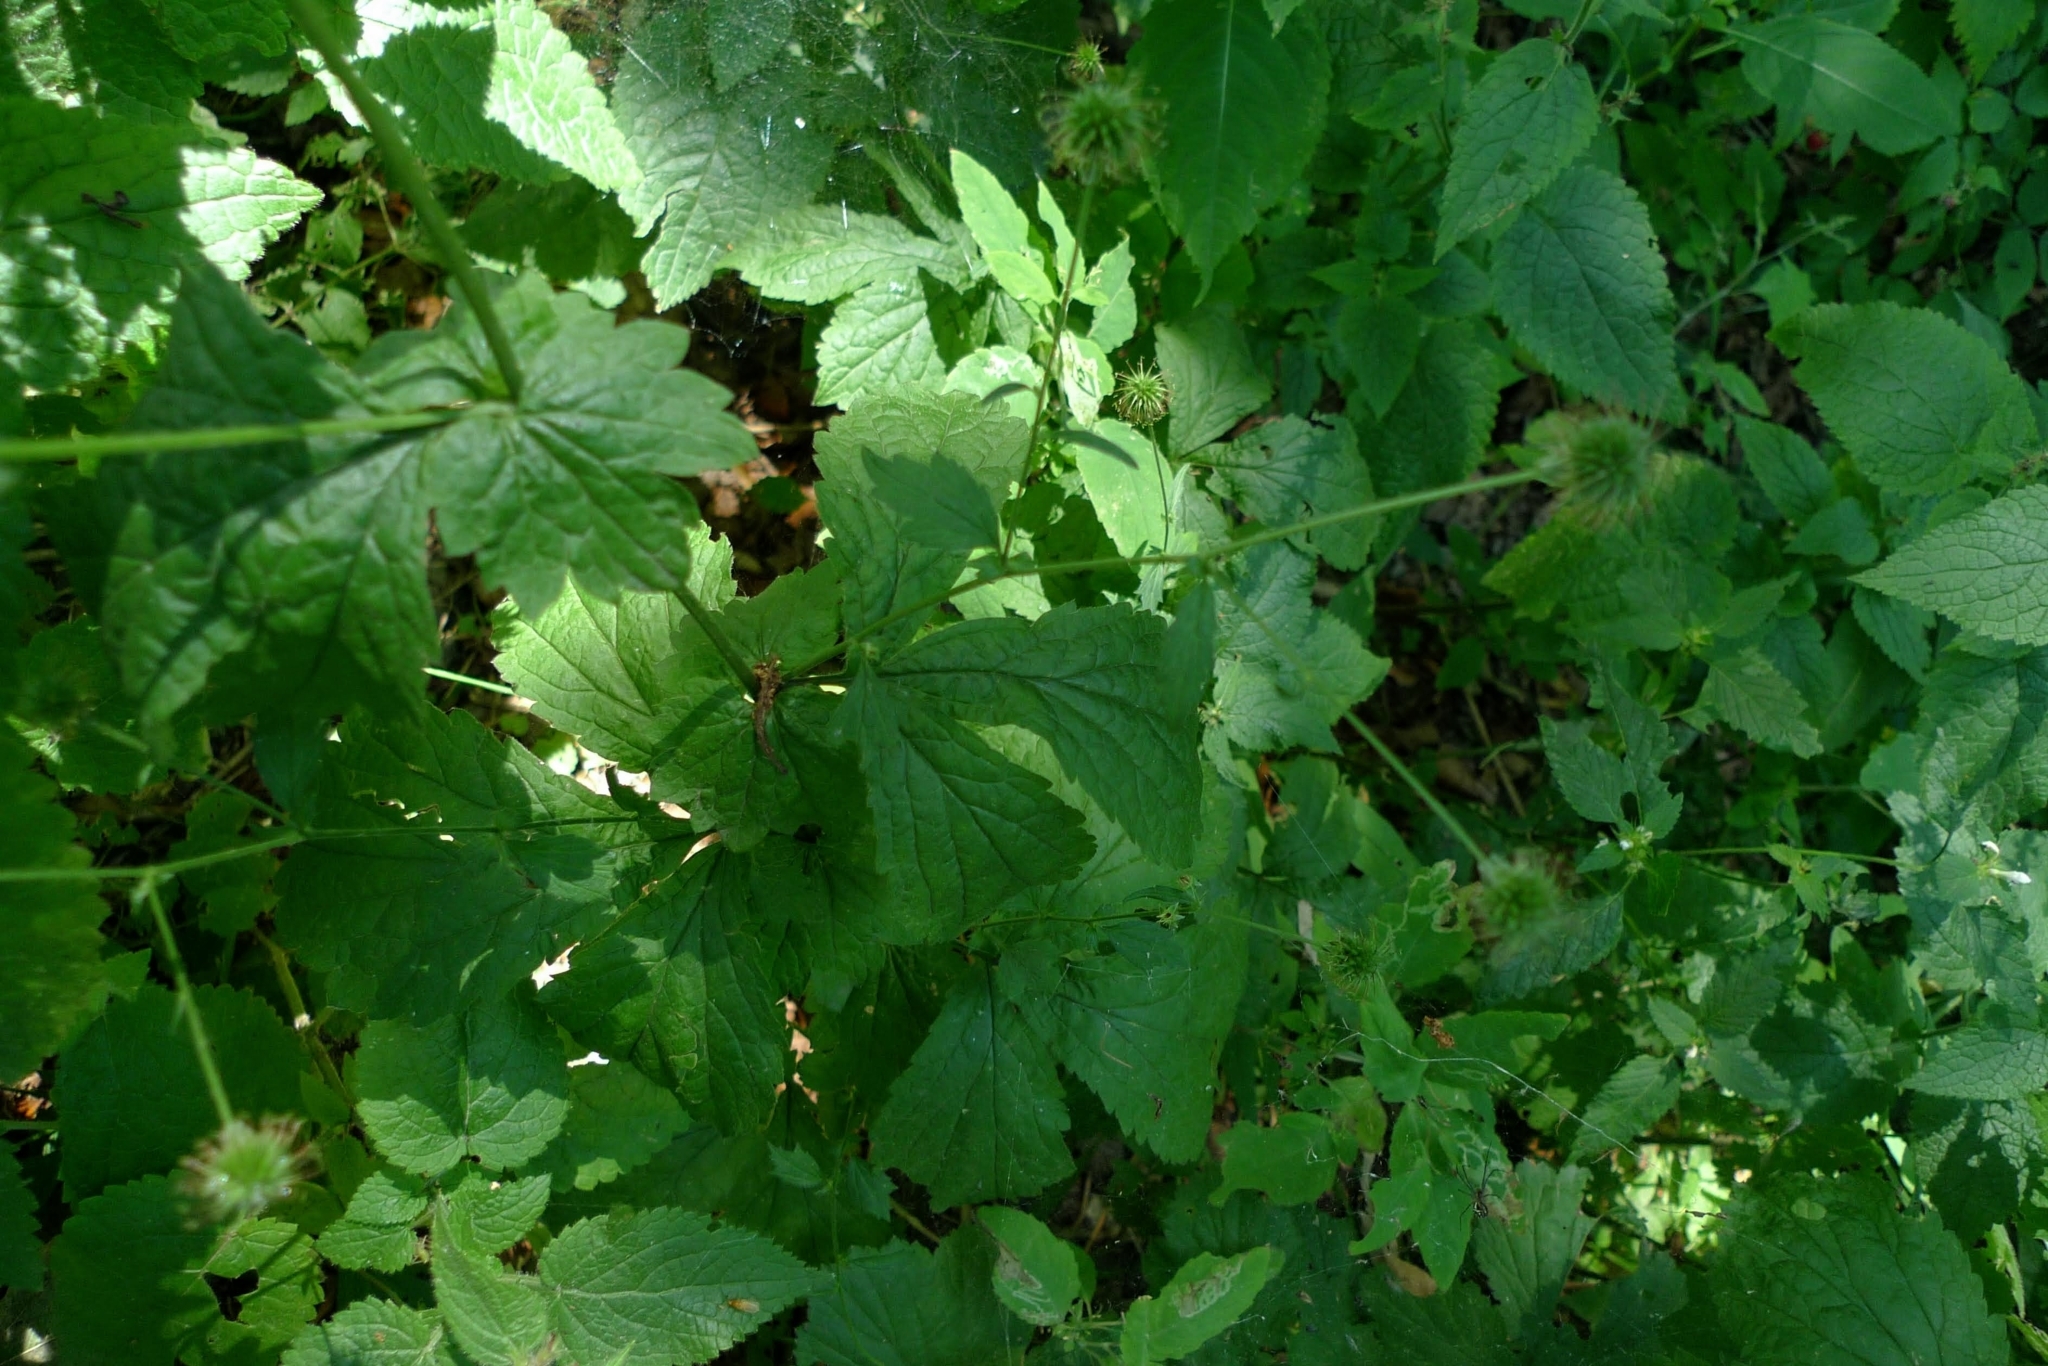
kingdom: Plantae
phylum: Tracheophyta
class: Magnoliopsida
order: Rosales
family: Rosaceae
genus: Geum
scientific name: Geum urbanum
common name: Wood avens
